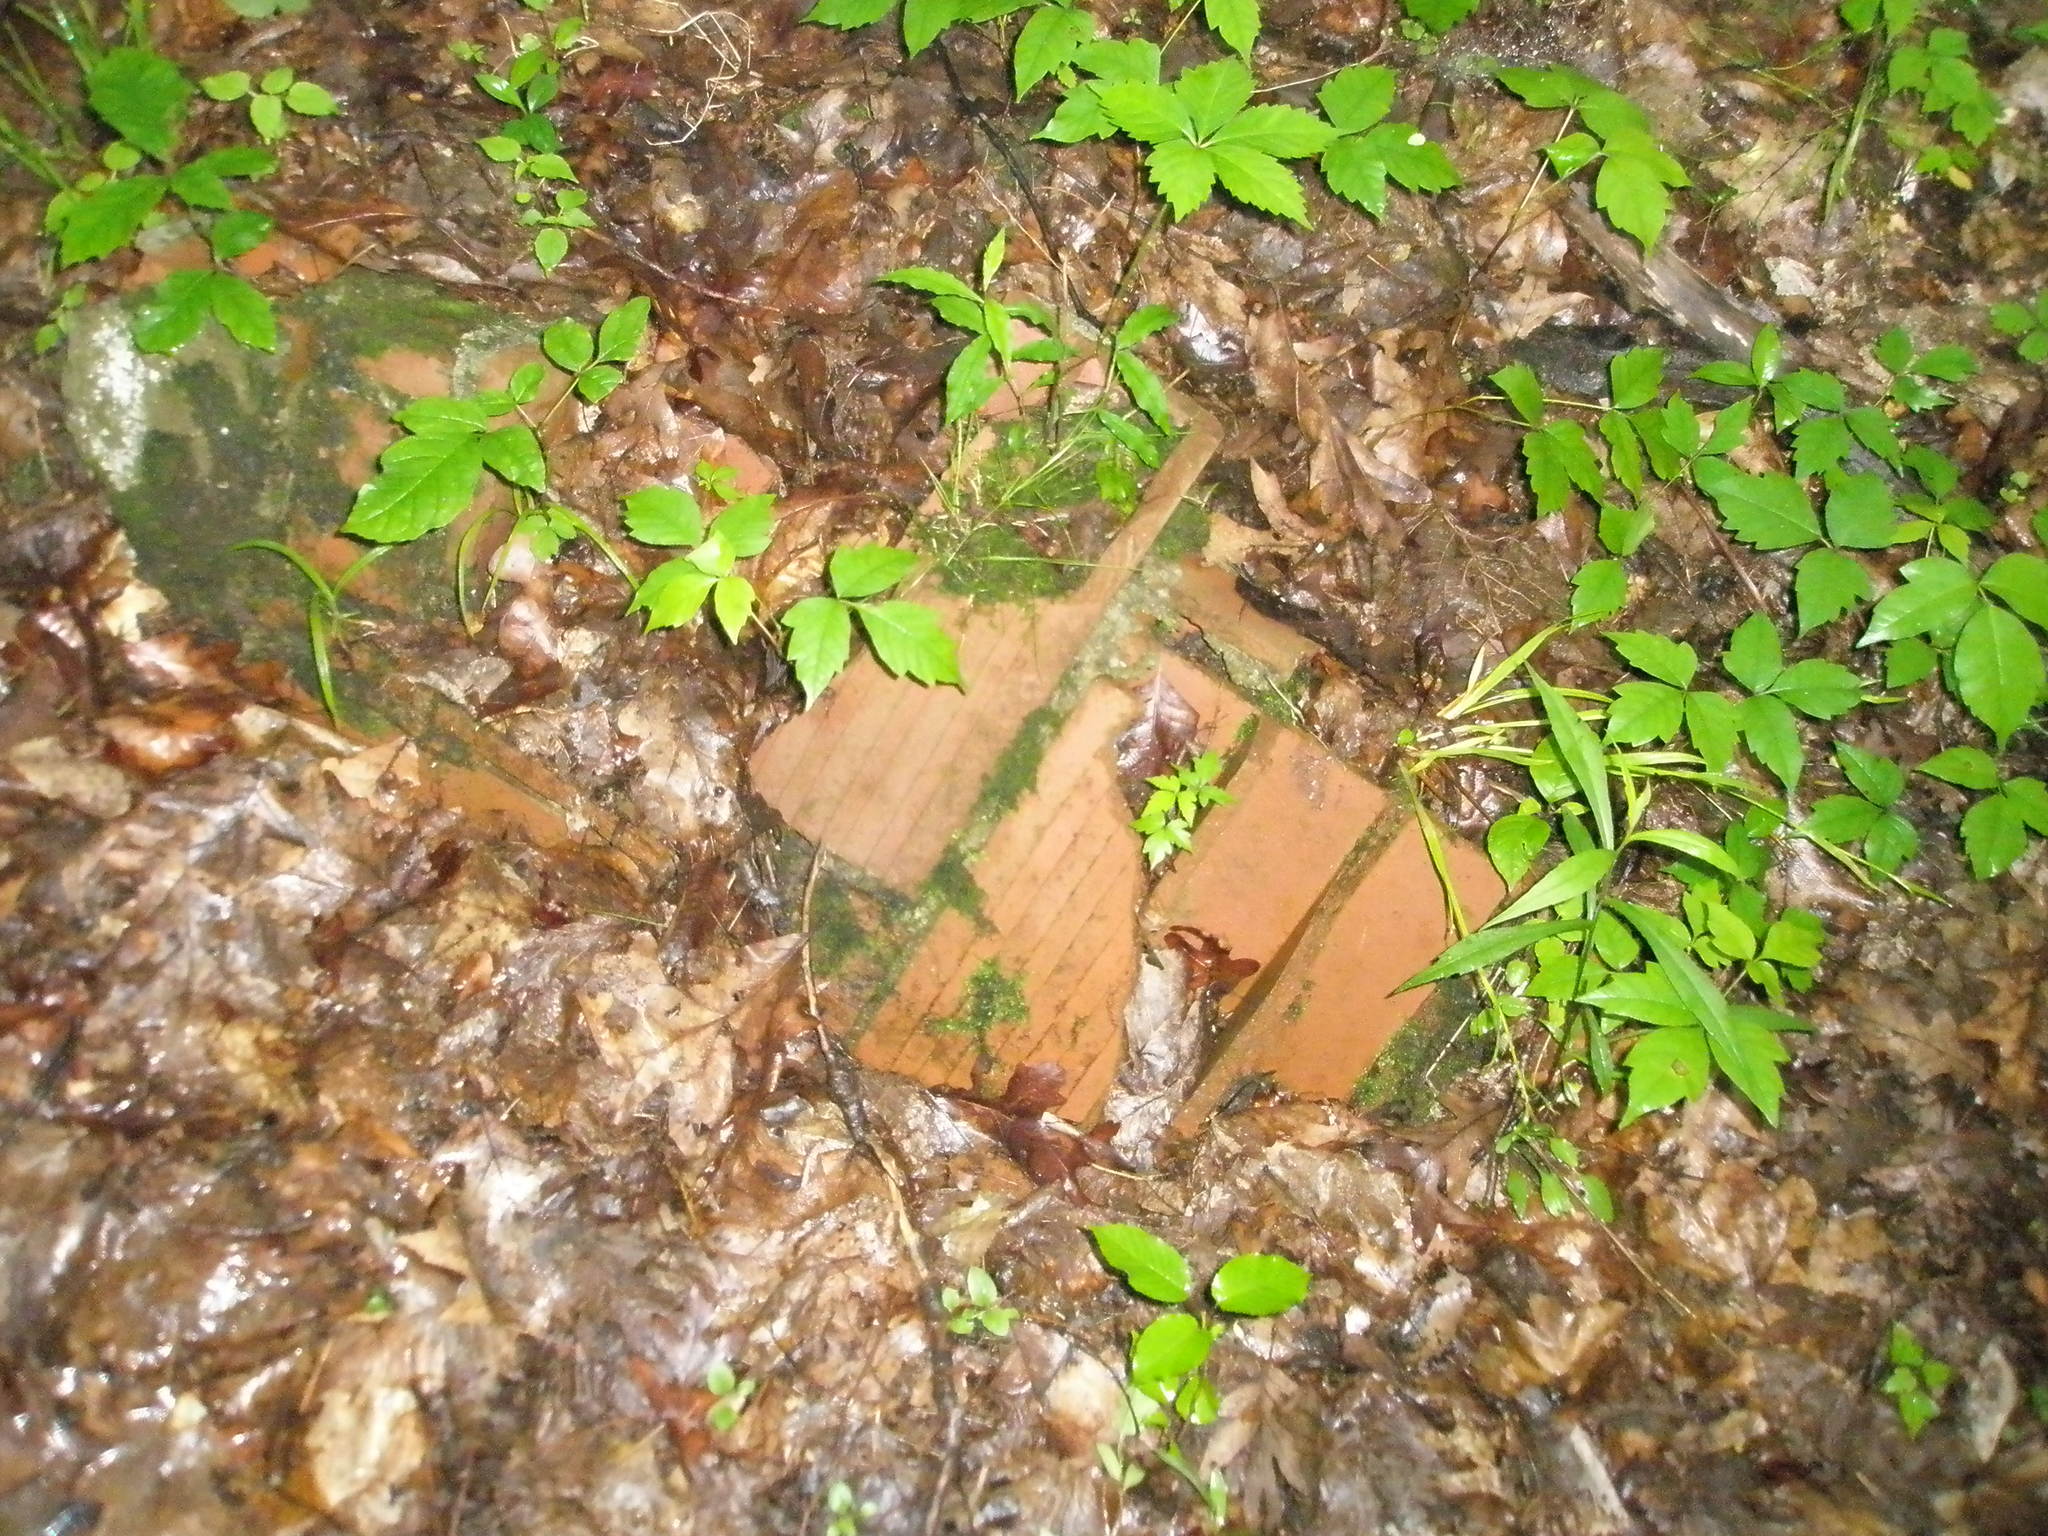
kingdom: Plantae
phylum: Tracheophyta
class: Magnoliopsida
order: Sapindales
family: Anacardiaceae
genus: Toxicodendron
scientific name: Toxicodendron radicans
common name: Poison ivy
